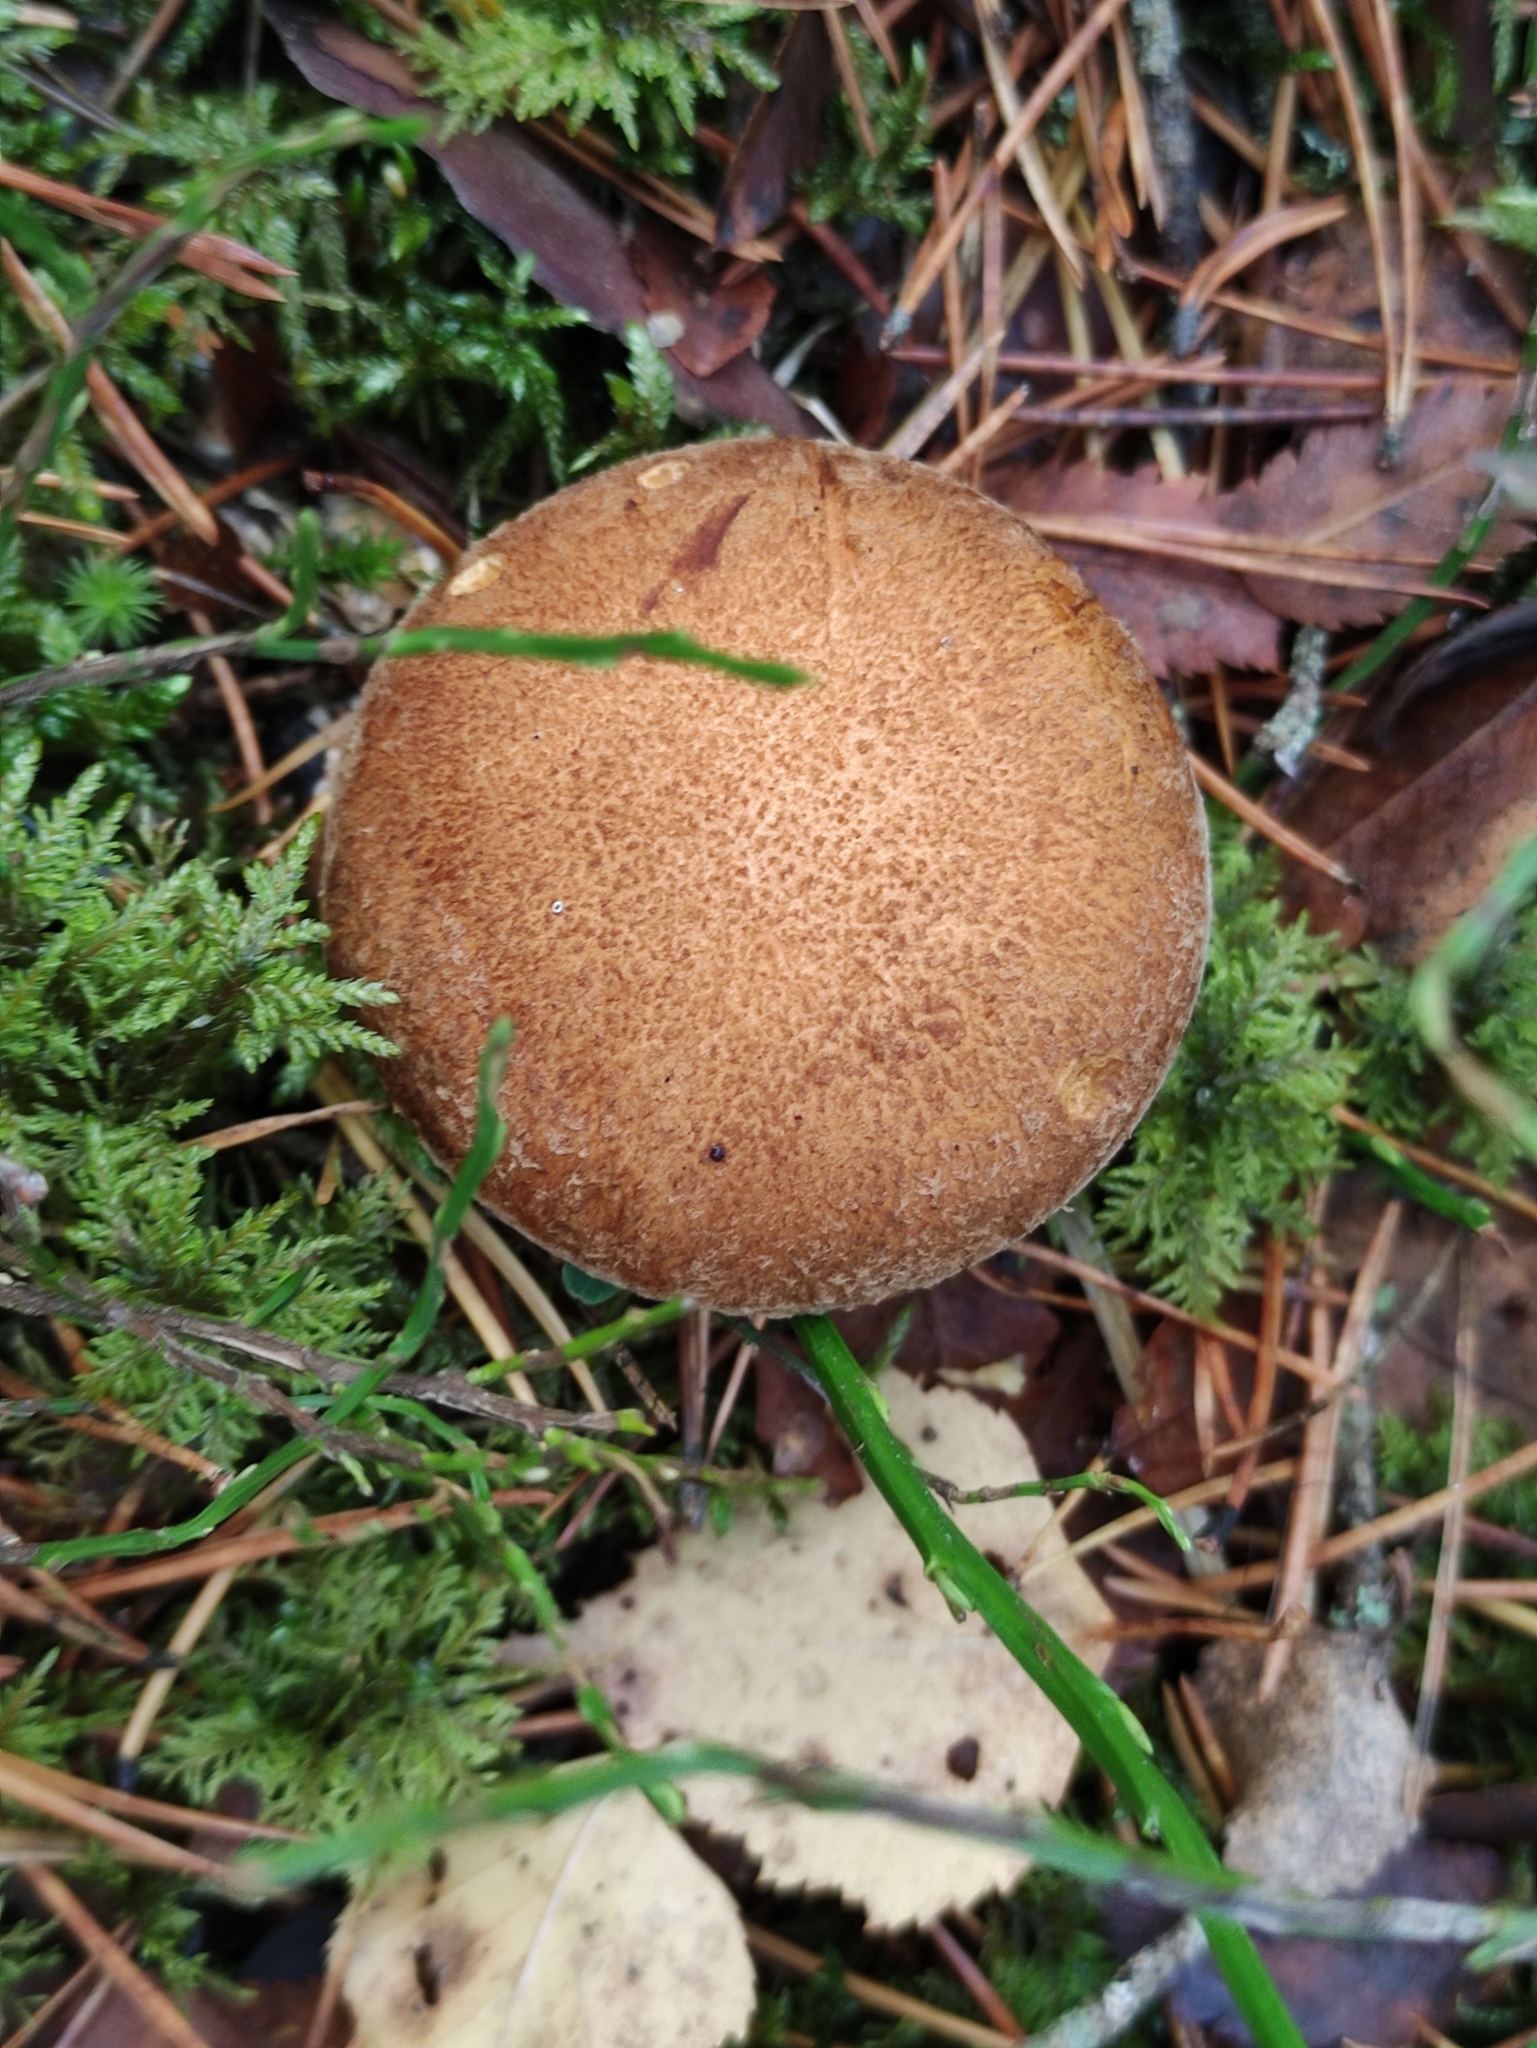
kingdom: Fungi
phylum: Basidiomycota
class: Agaricomycetes
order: Boletales
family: Suillaceae
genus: Suillus
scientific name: Suillus variegatus
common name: Velvet bolete
